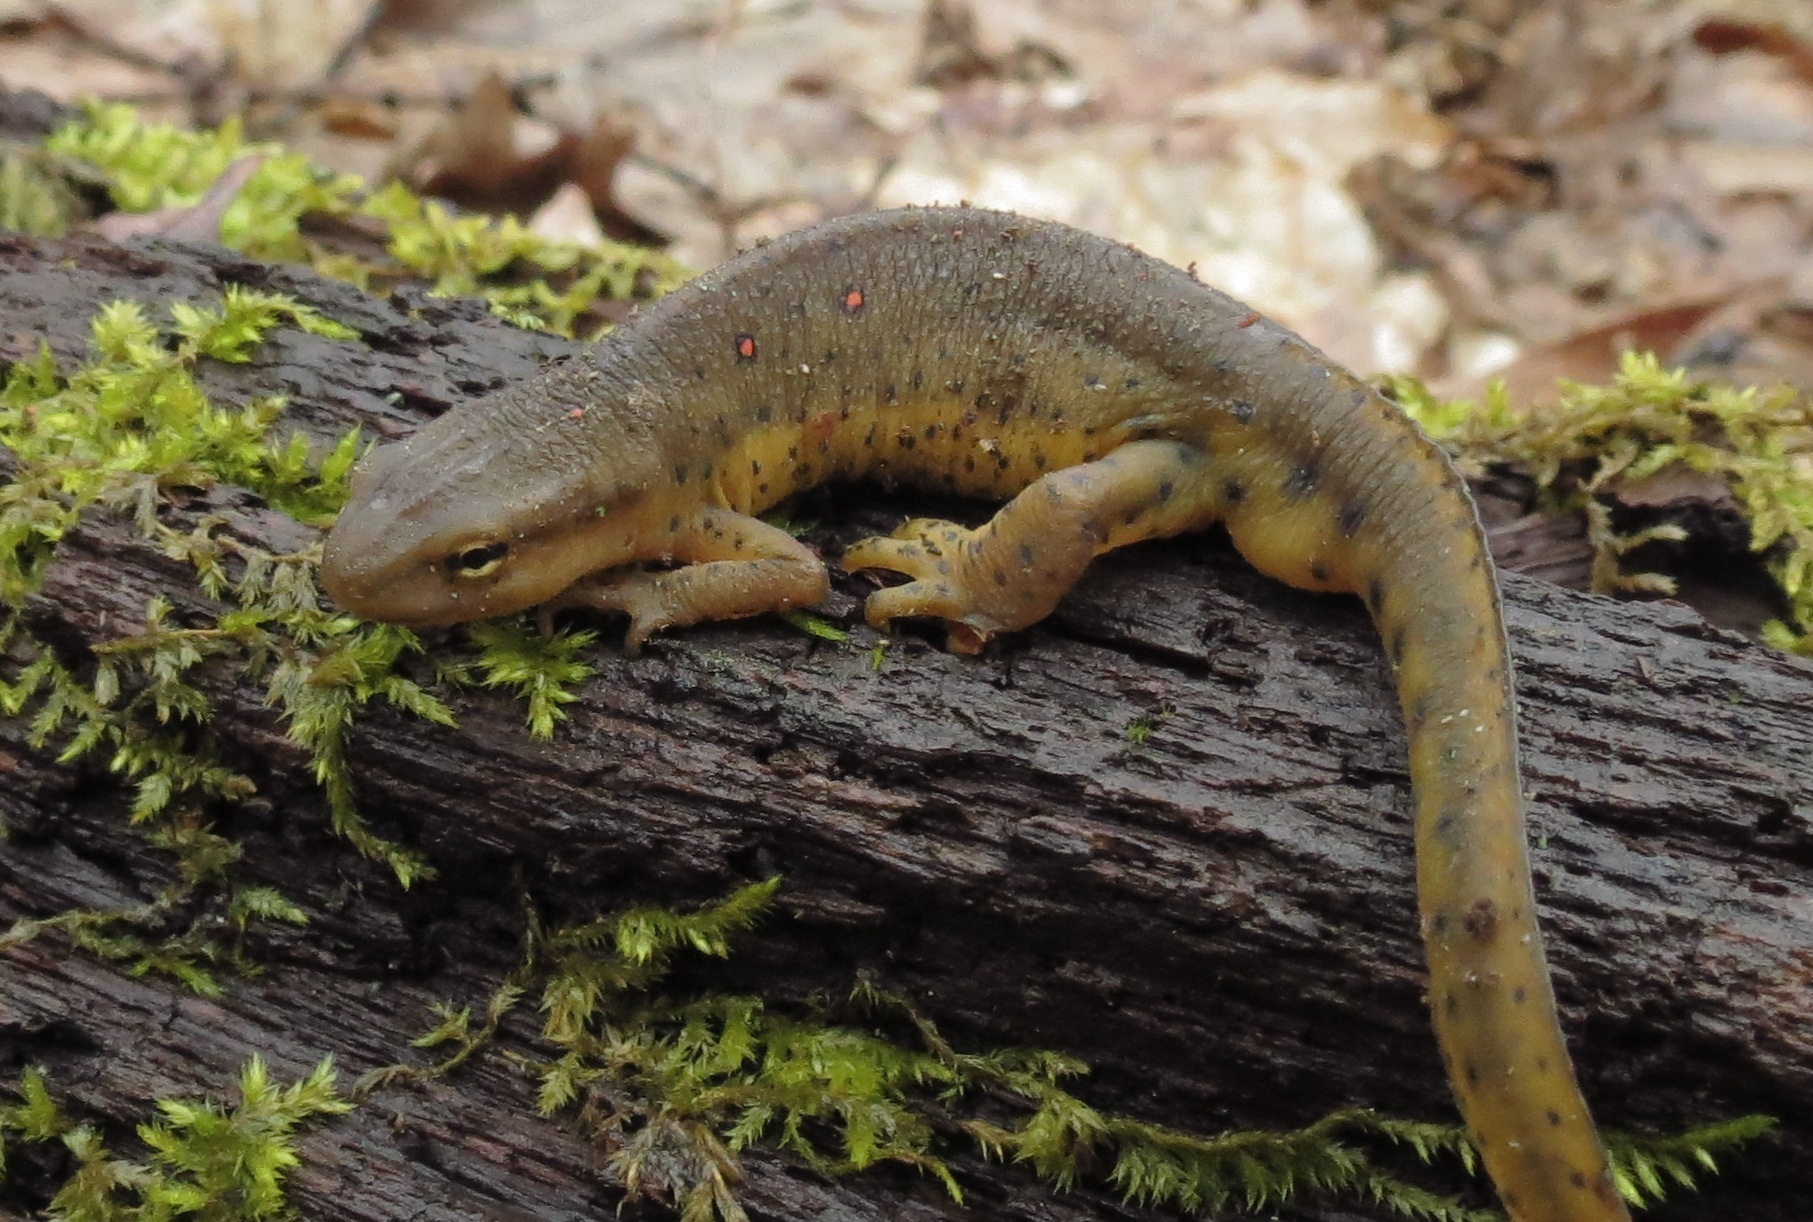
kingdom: Animalia
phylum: Chordata
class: Amphibia
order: Caudata
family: Salamandridae
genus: Notophthalmus
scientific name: Notophthalmus viridescens
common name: Eastern newt
